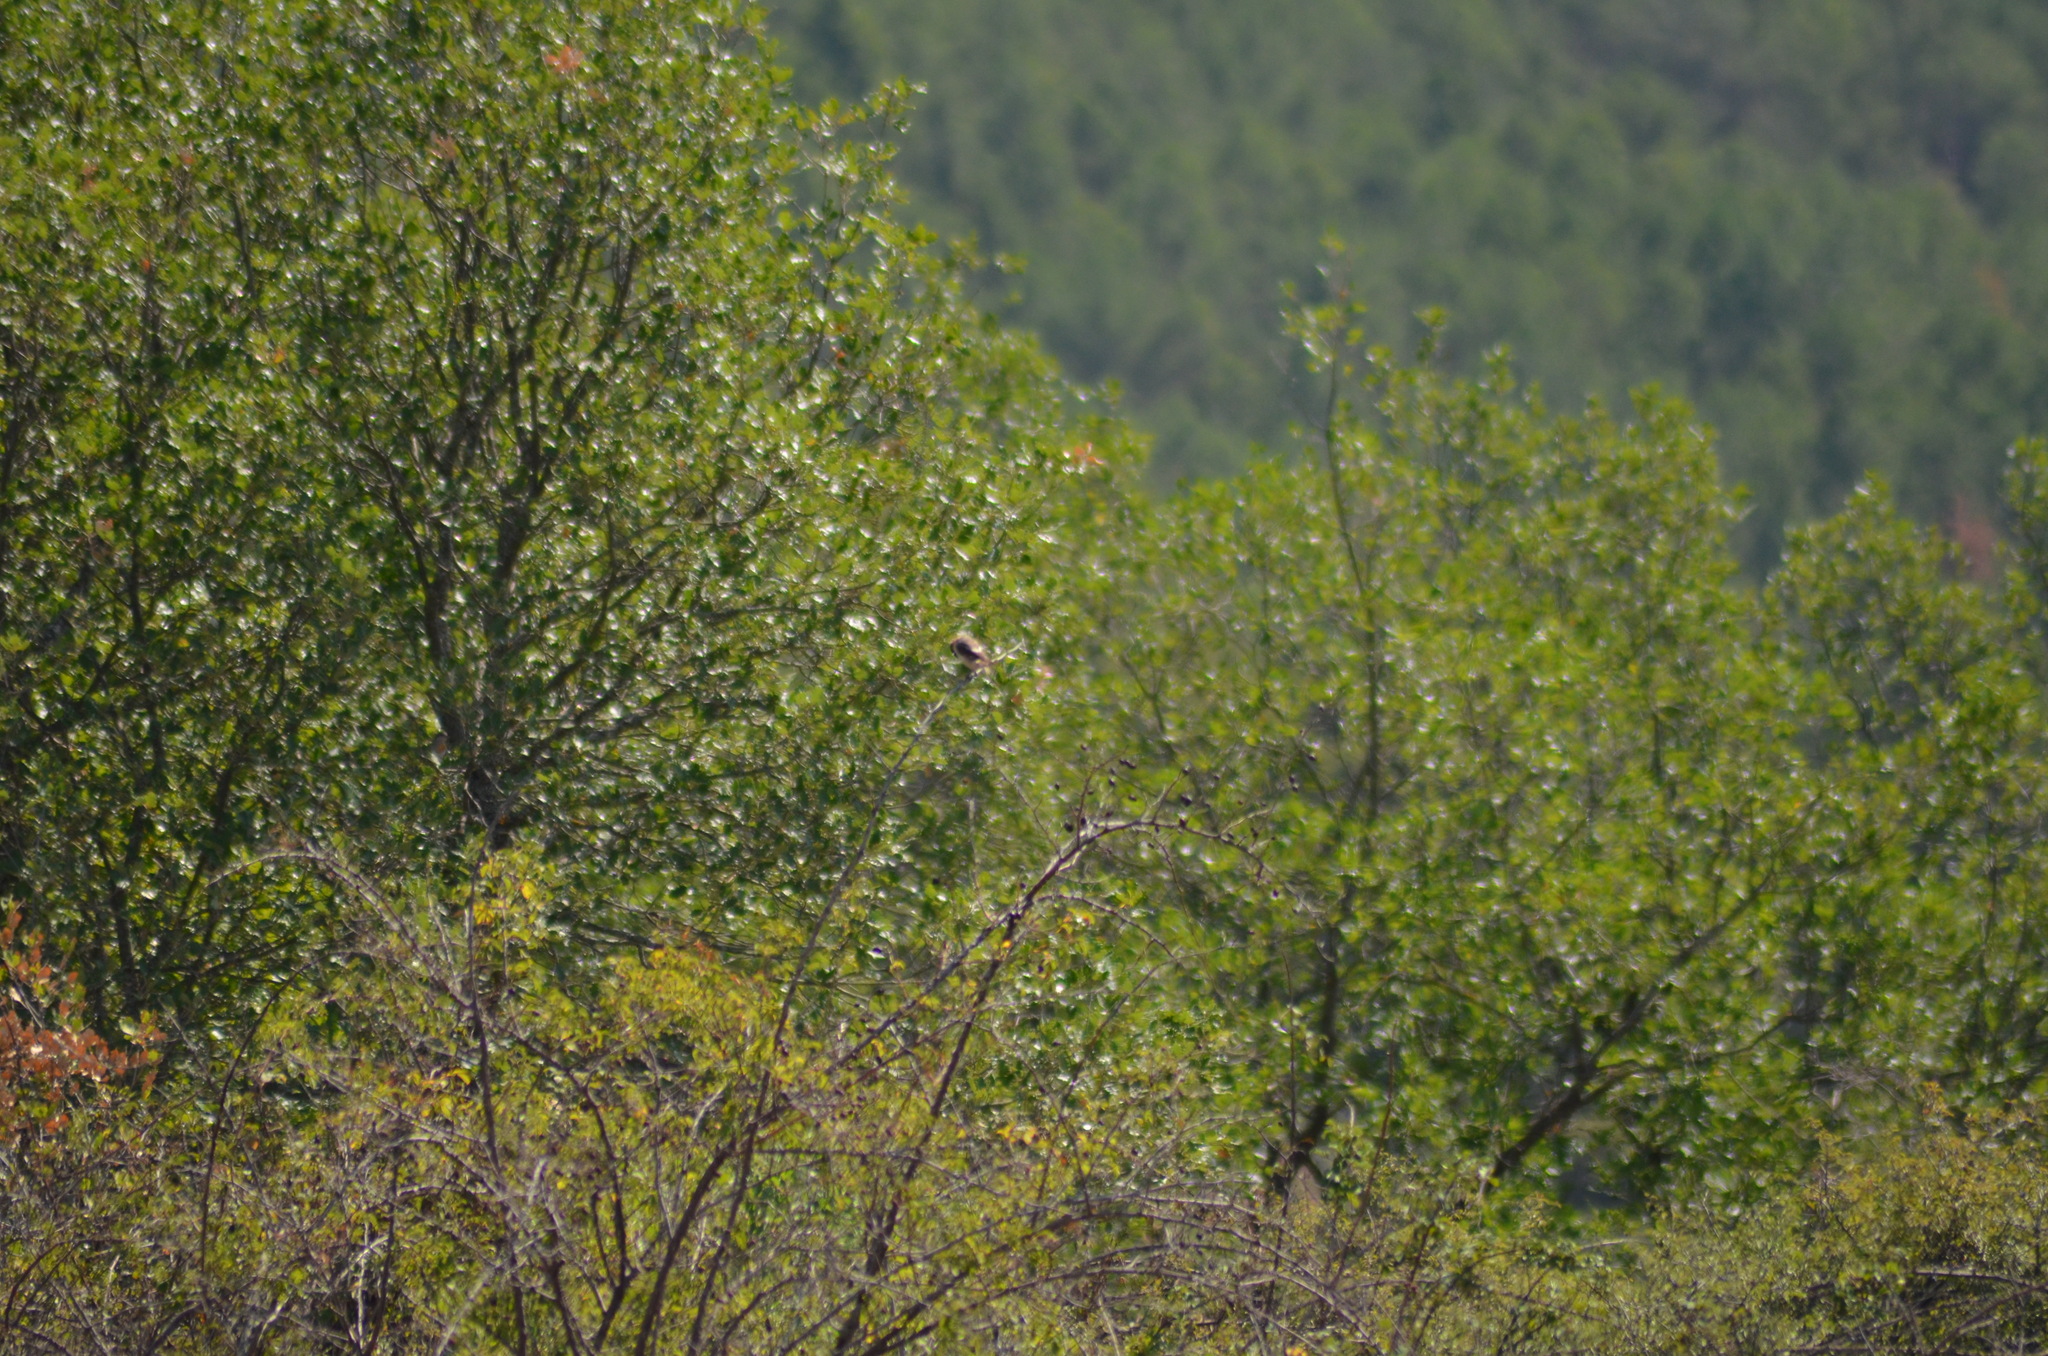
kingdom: Animalia
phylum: Chordata
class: Aves
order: Passeriformes
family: Laniidae
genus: Lanius
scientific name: Lanius senator
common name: Woodchat shrike
